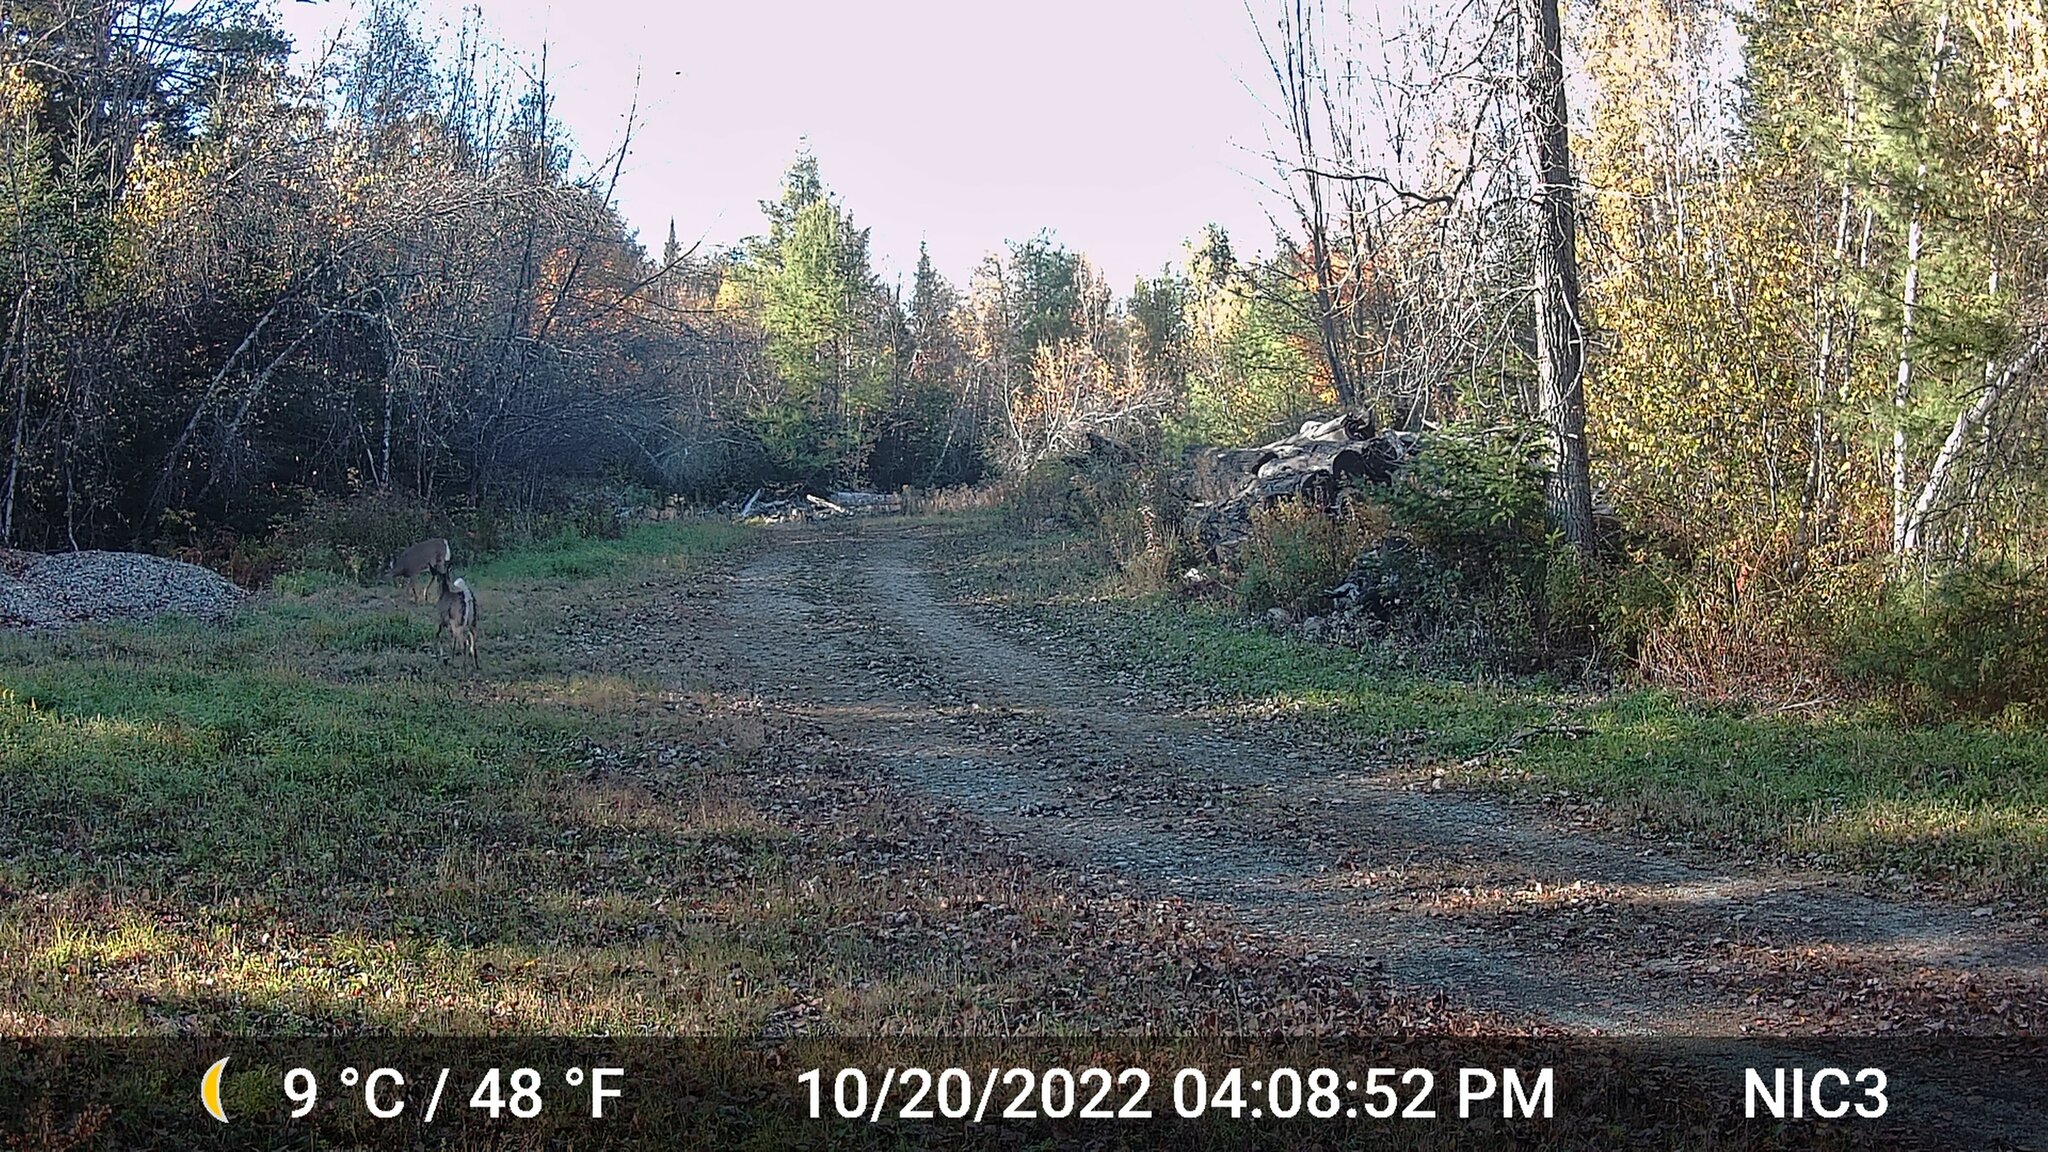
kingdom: Animalia
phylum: Chordata
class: Mammalia
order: Artiodactyla
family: Cervidae
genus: Odocoileus
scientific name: Odocoileus virginianus
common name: White-tailed deer
